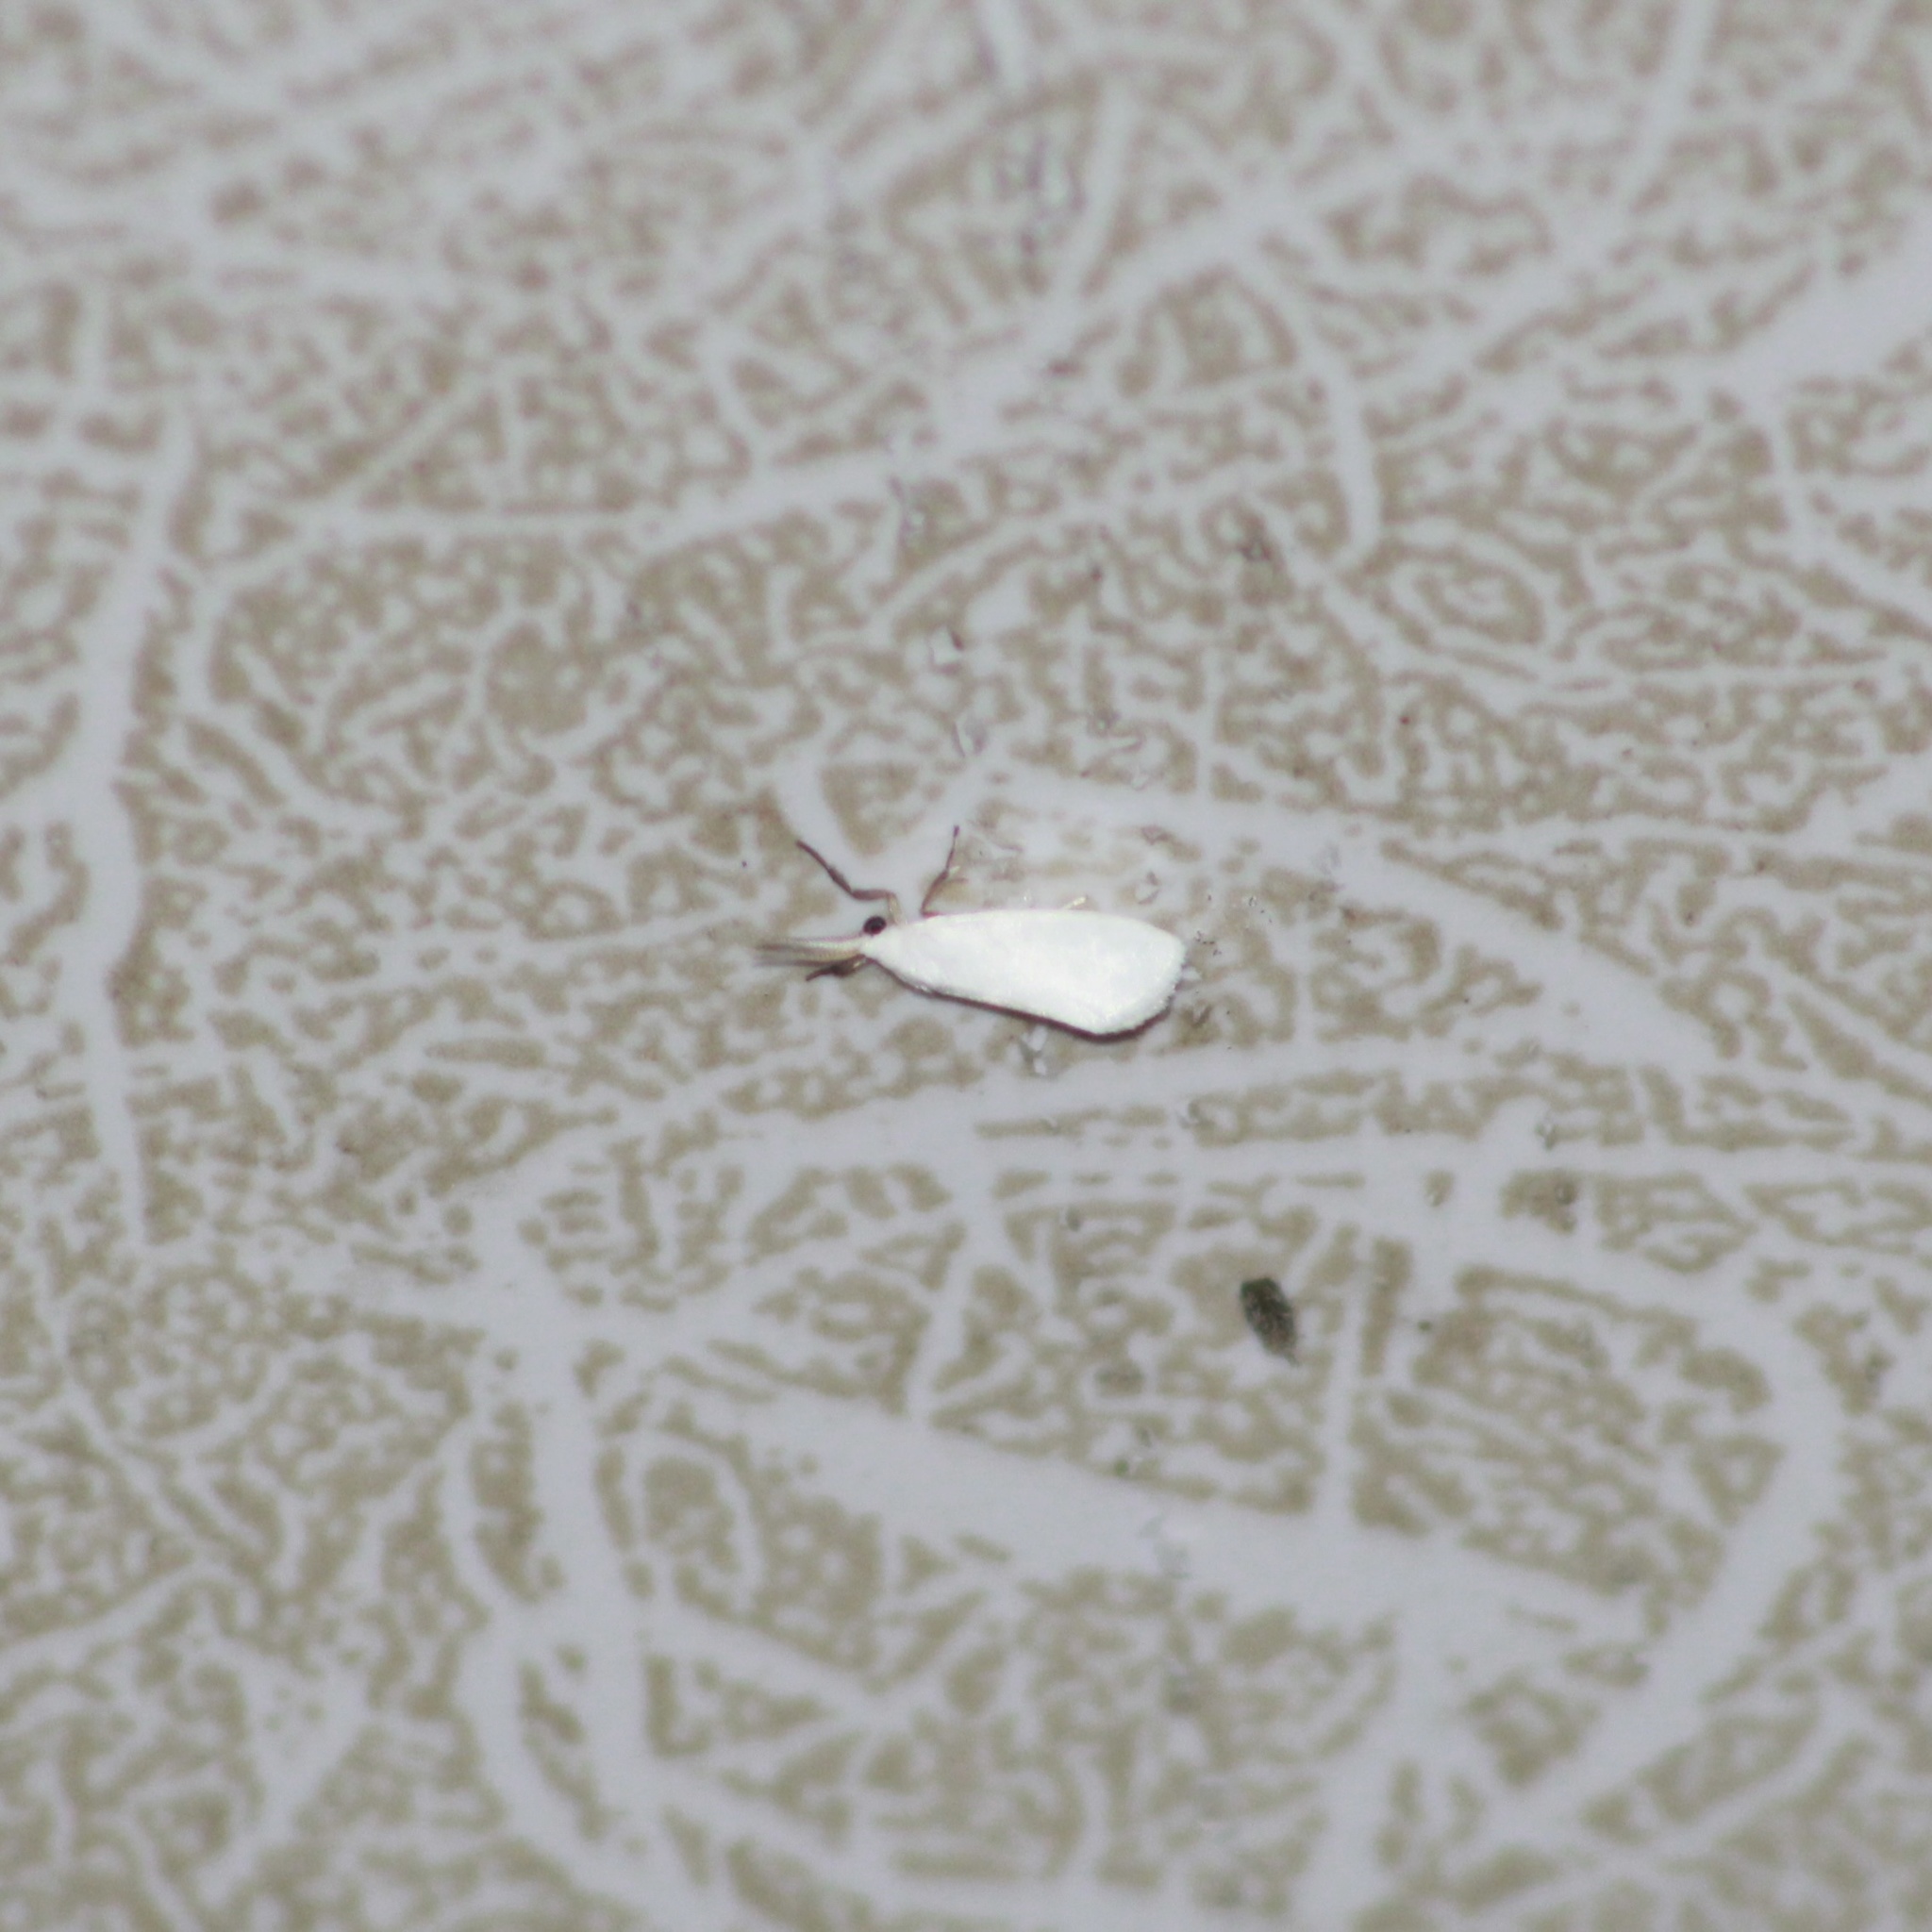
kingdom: Animalia
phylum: Arthropoda
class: Insecta
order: Lepidoptera
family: Erebidae
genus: Euthyone
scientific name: Euthyone simplex
